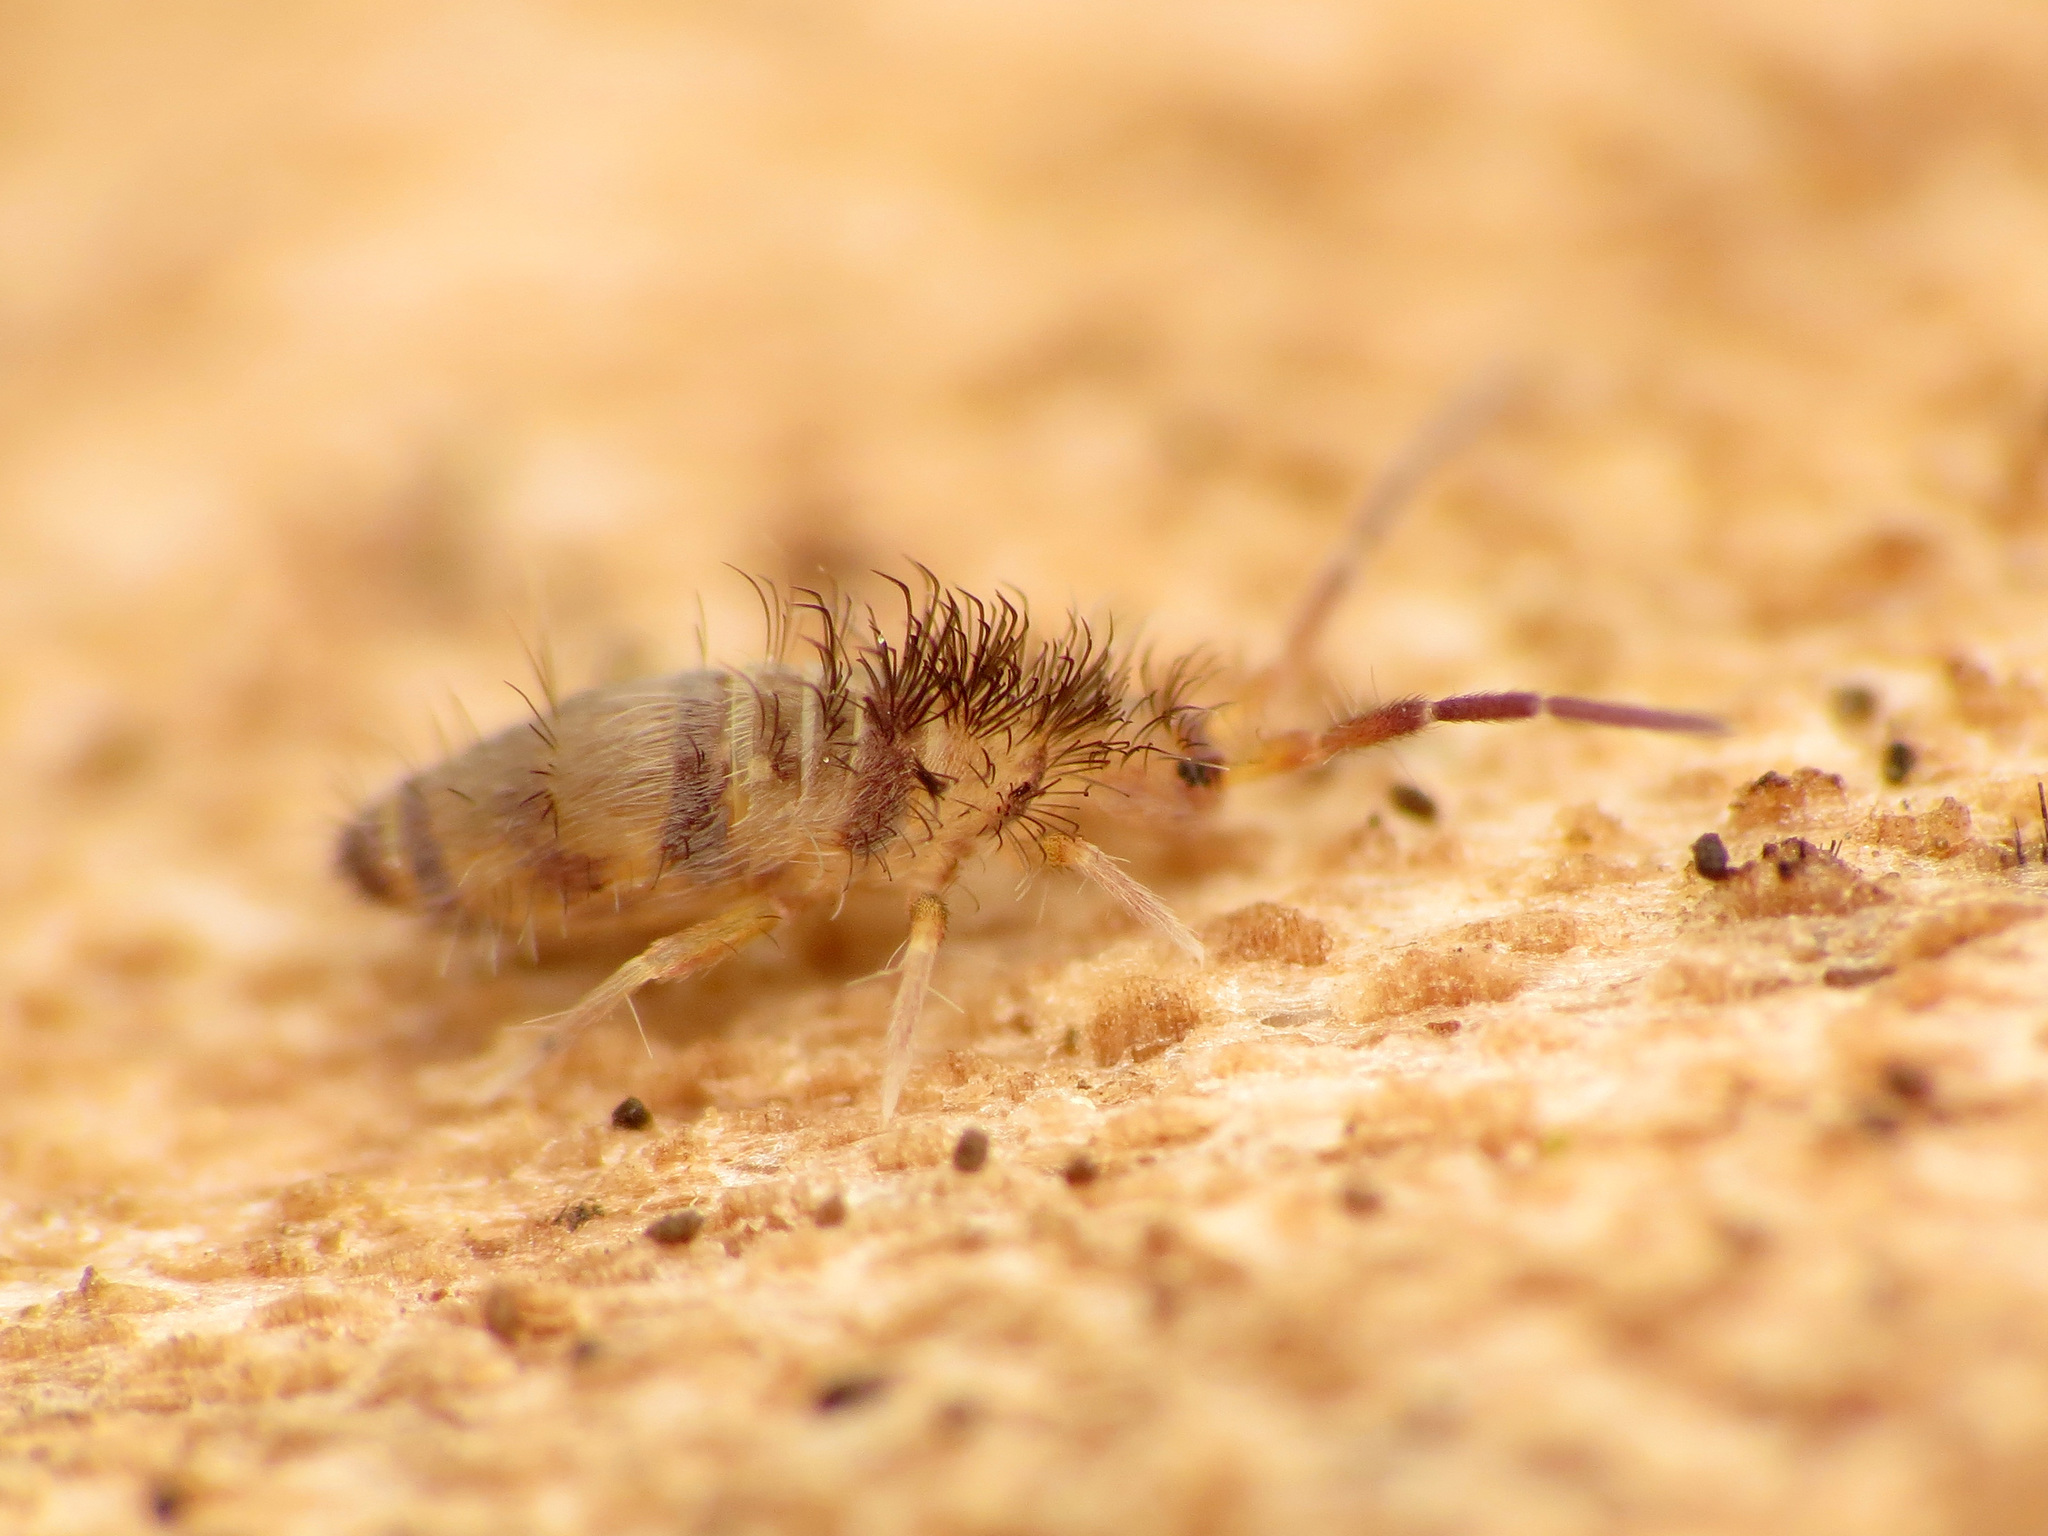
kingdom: Animalia
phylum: Arthropoda
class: Collembola
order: Entomobryomorpha
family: Entomobryidae
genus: Homidia
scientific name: Homidia sauteri
